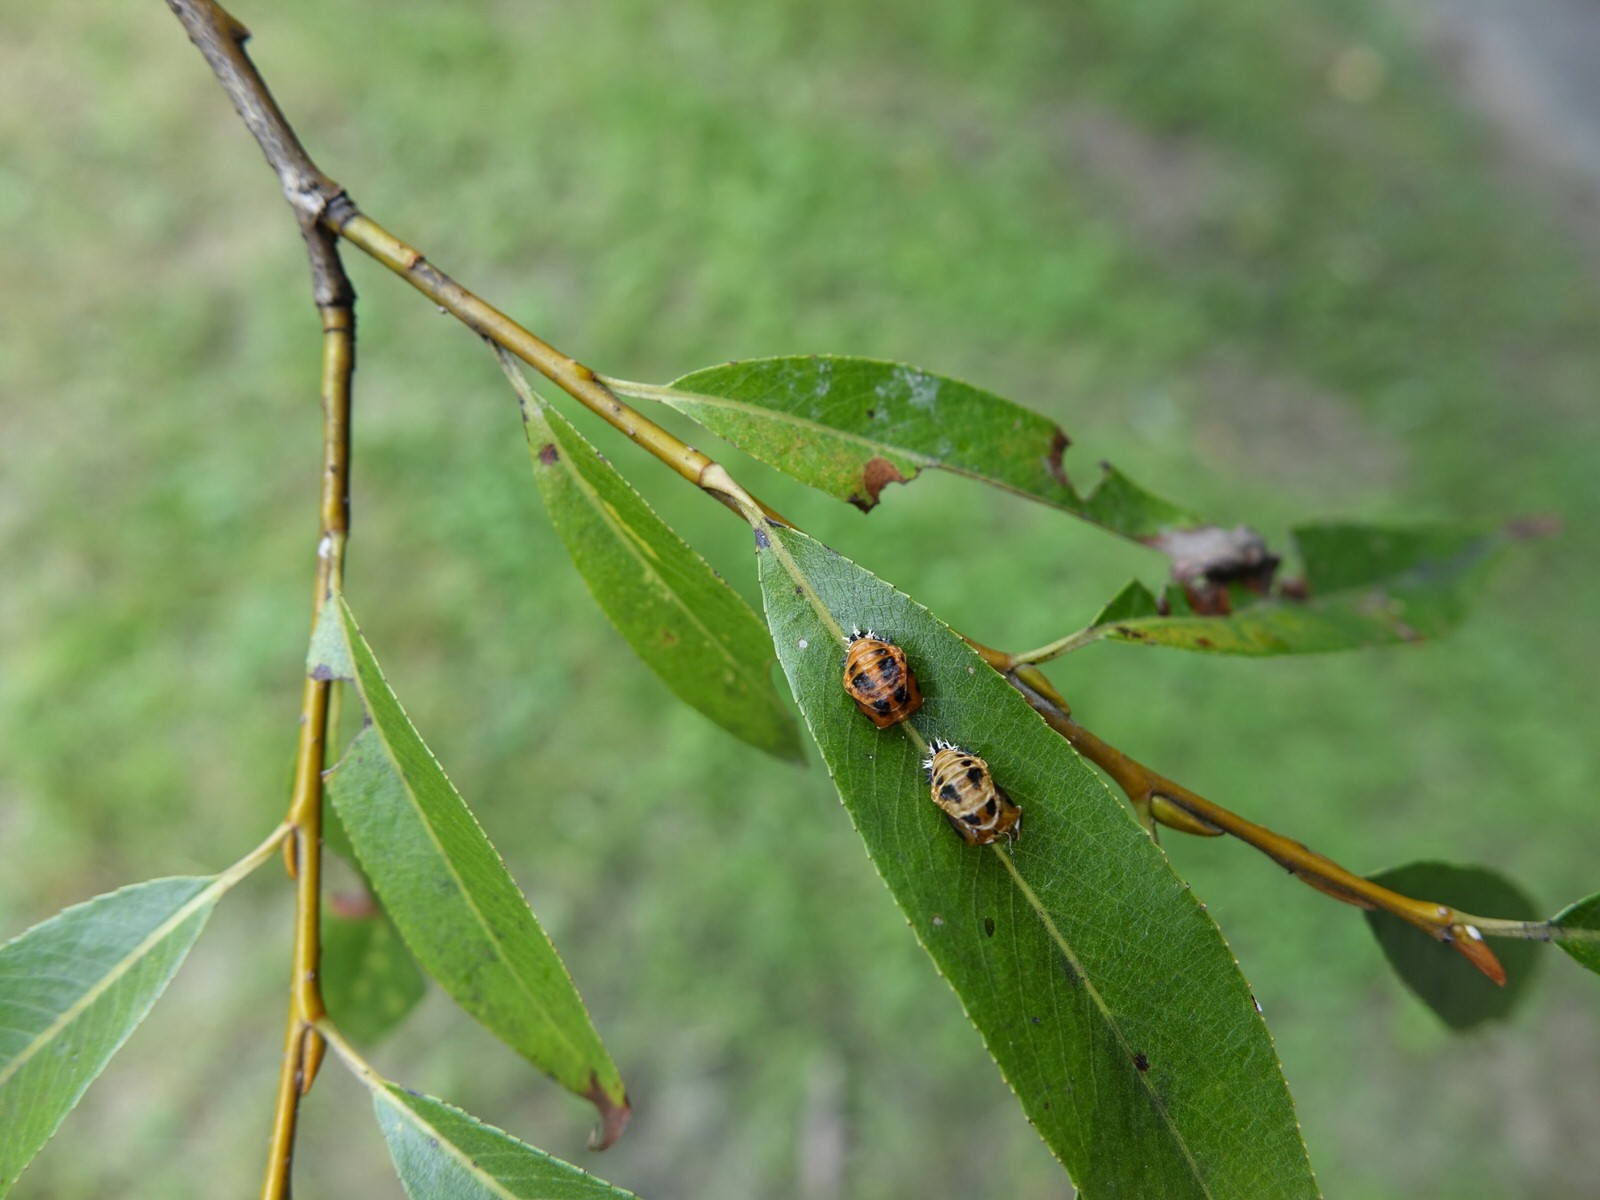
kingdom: Animalia
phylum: Arthropoda
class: Insecta
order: Coleoptera
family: Coccinellidae
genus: Harmonia
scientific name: Harmonia axyridis
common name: Harlequin ladybird
